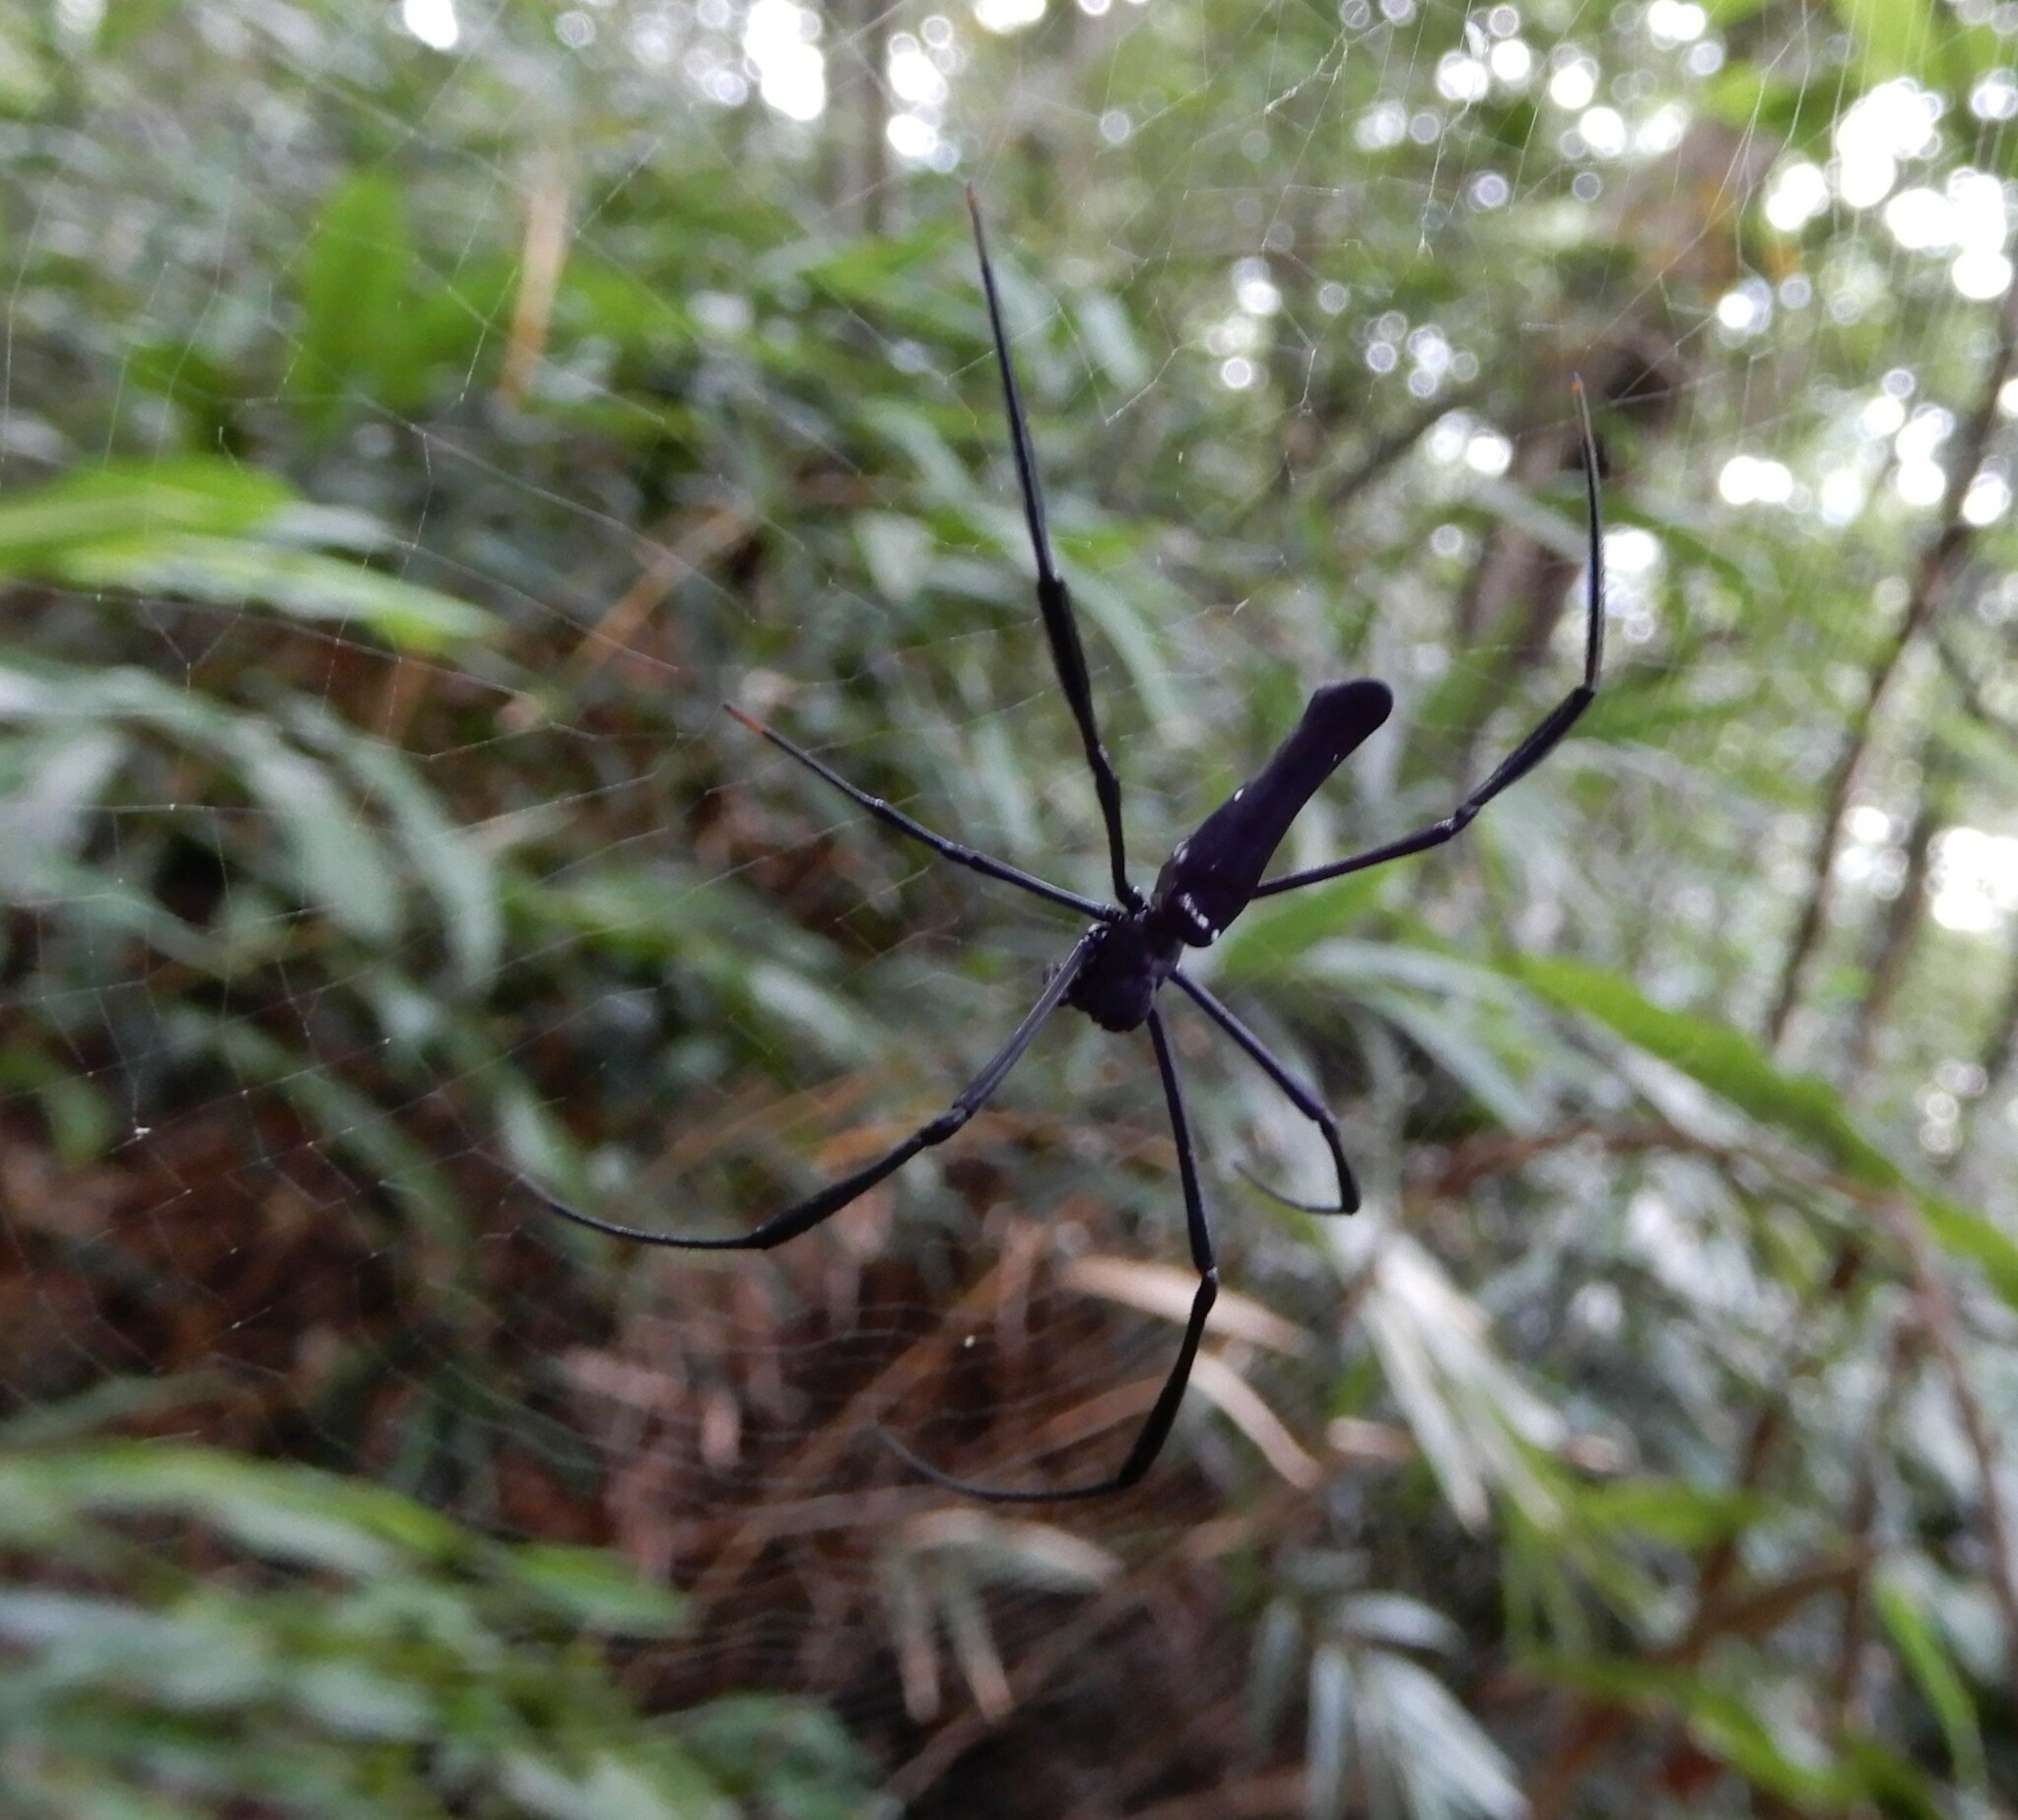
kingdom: Animalia
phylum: Arthropoda
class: Arachnida
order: Araneae
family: Araneidae
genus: Nephila
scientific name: Nephila pilipes
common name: Giant golden orb weaver
